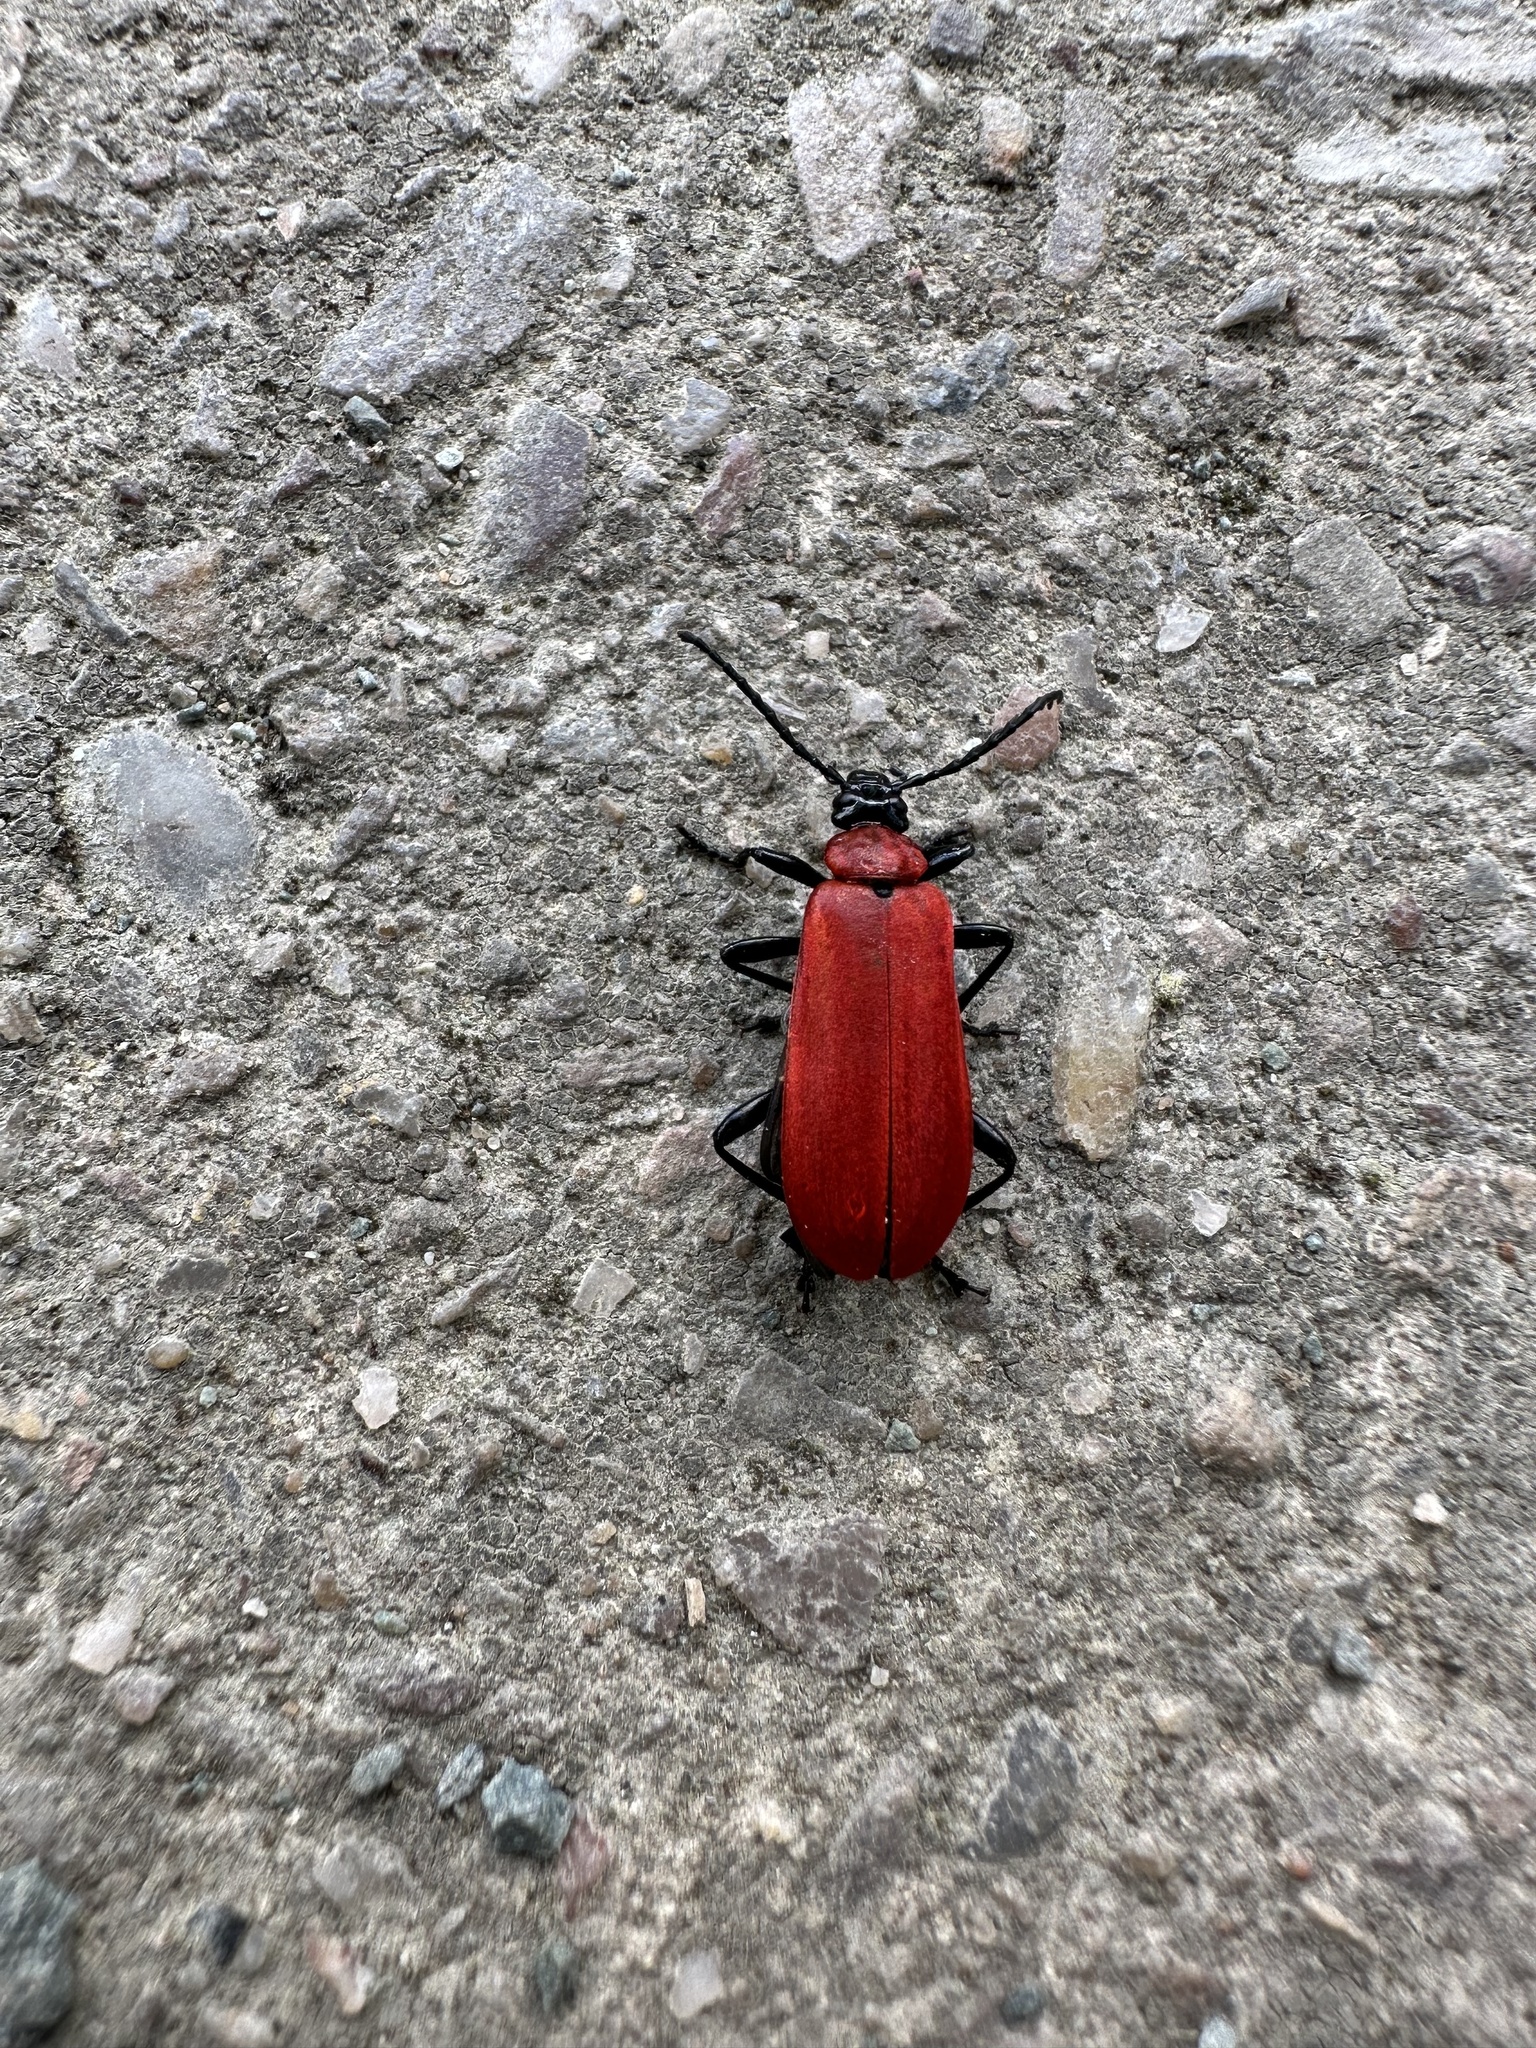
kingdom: Animalia
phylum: Arthropoda
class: Insecta
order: Coleoptera
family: Pyrochroidae
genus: Pyrochroa
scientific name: Pyrochroa coccinea
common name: Black-headed cardinal beetle
